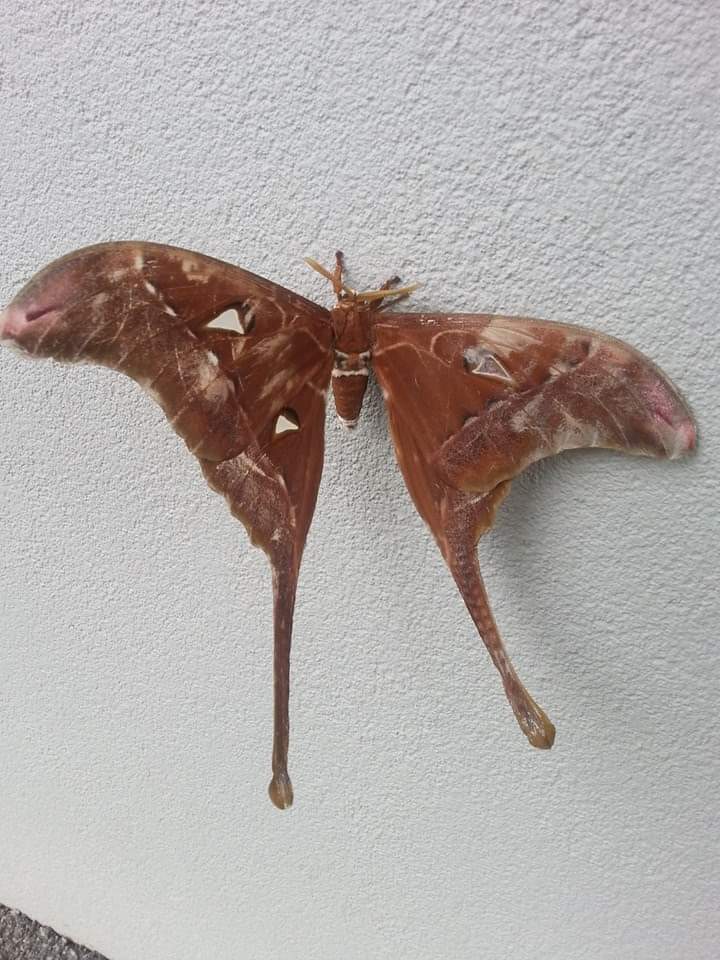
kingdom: Animalia
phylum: Arthropoda
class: Insecta
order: Lepidoptera
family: Saturniidae
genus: Coscinocera
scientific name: Coscinocera hercules
